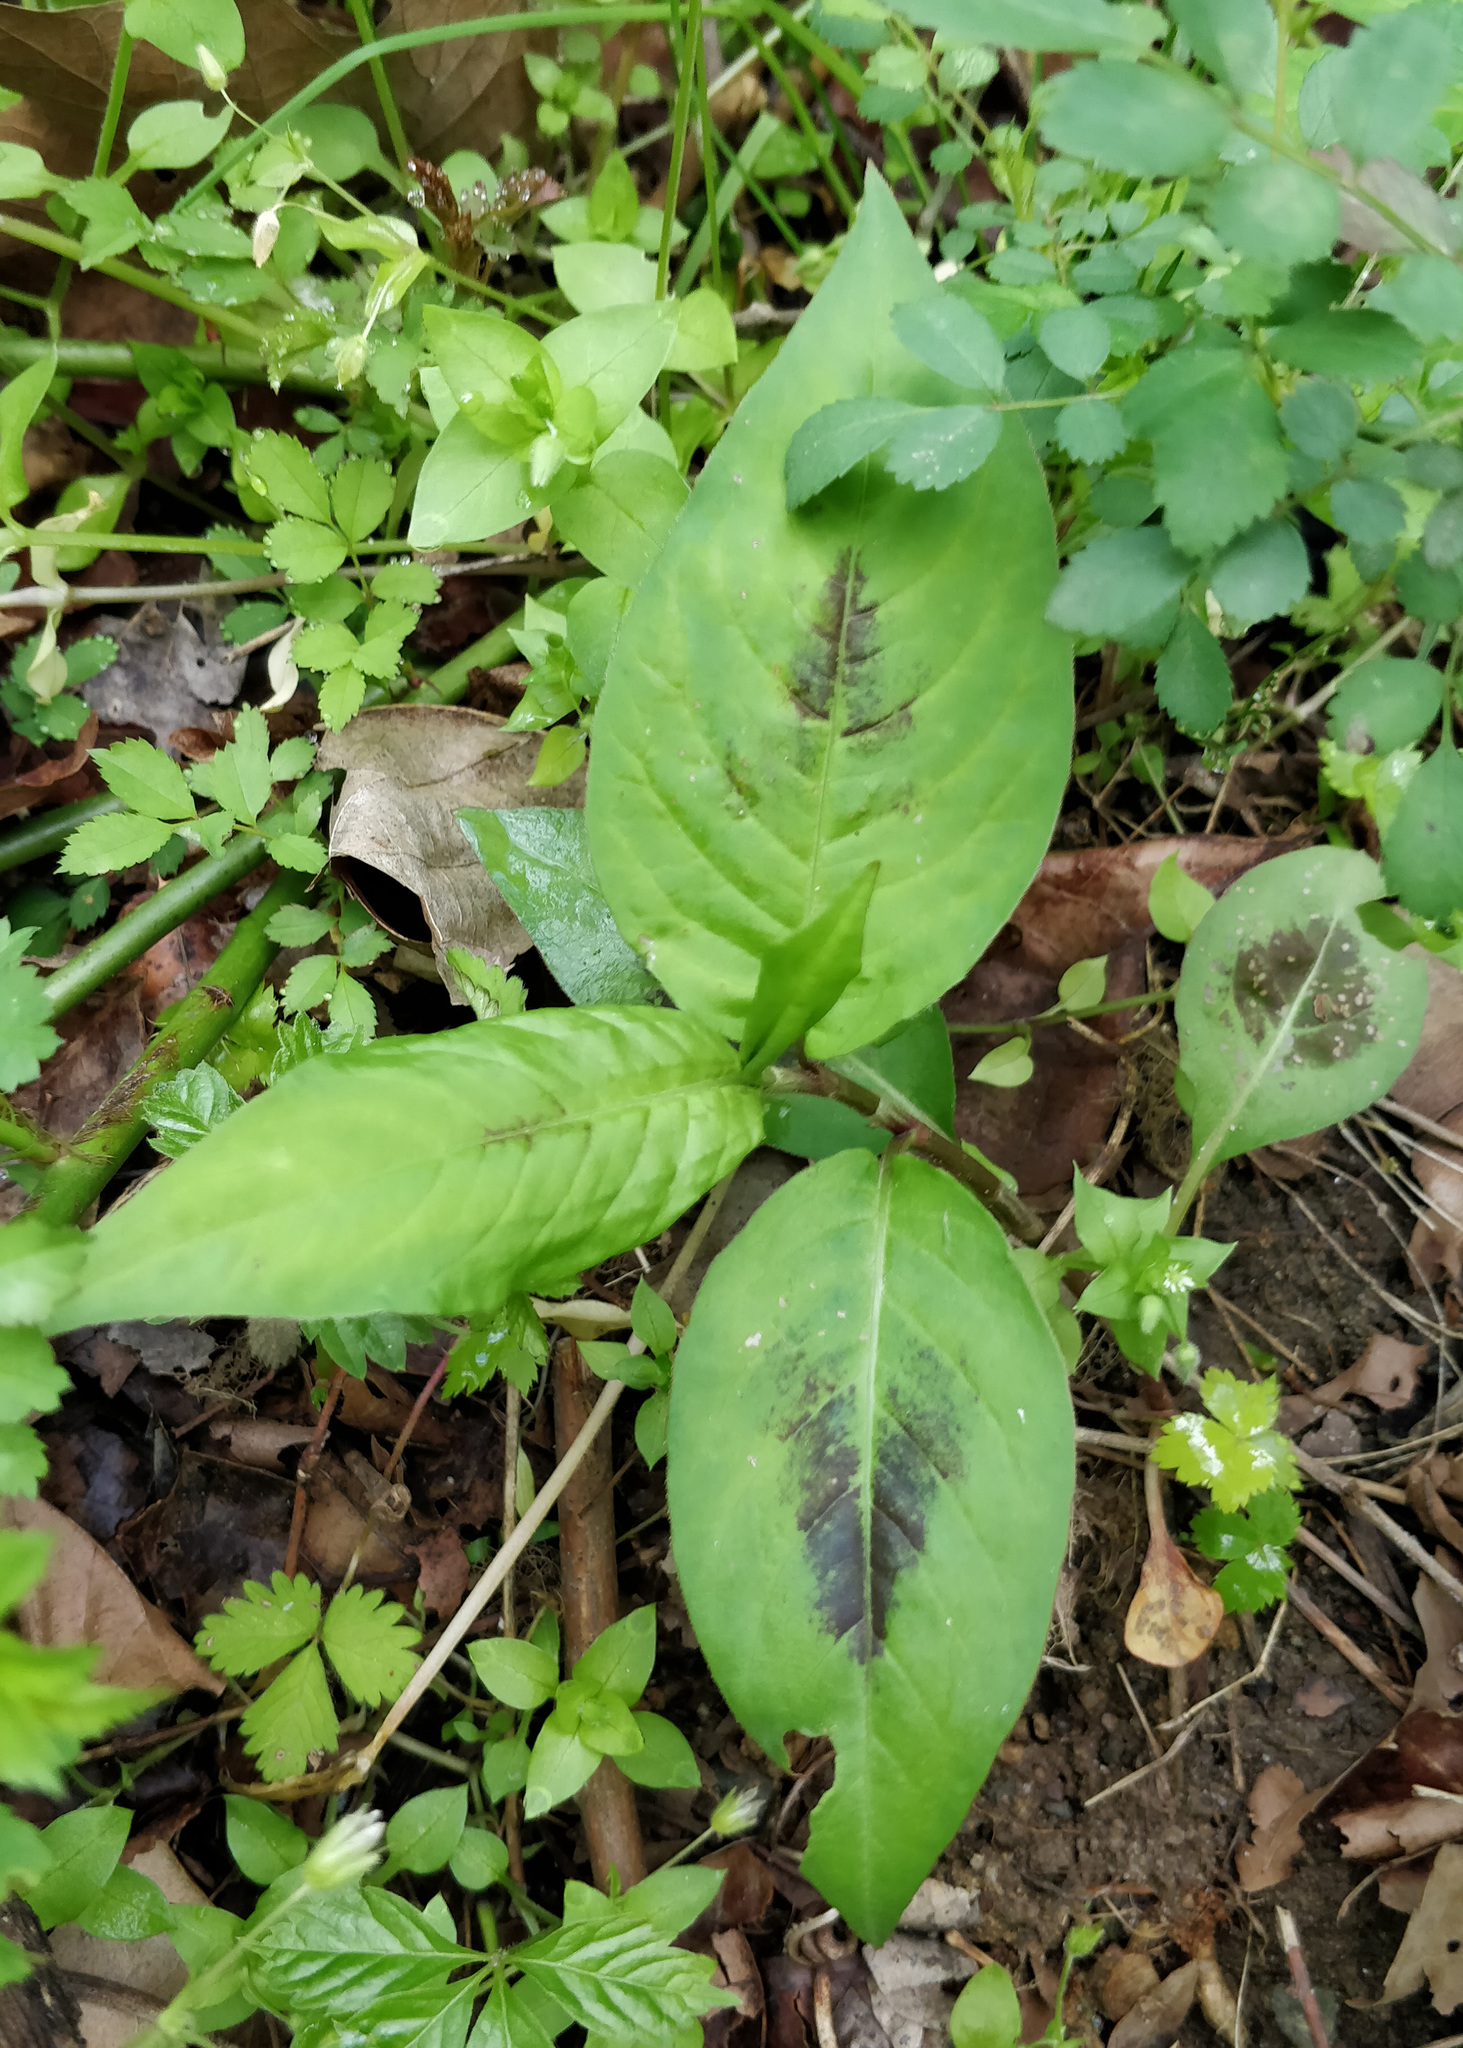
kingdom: Plantae
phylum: Tracheophyta
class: Magnoliopsida
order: Caryophyllales
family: Polygonaceae
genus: Persicaria
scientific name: Persicaria virginiana
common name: Jumpseed
